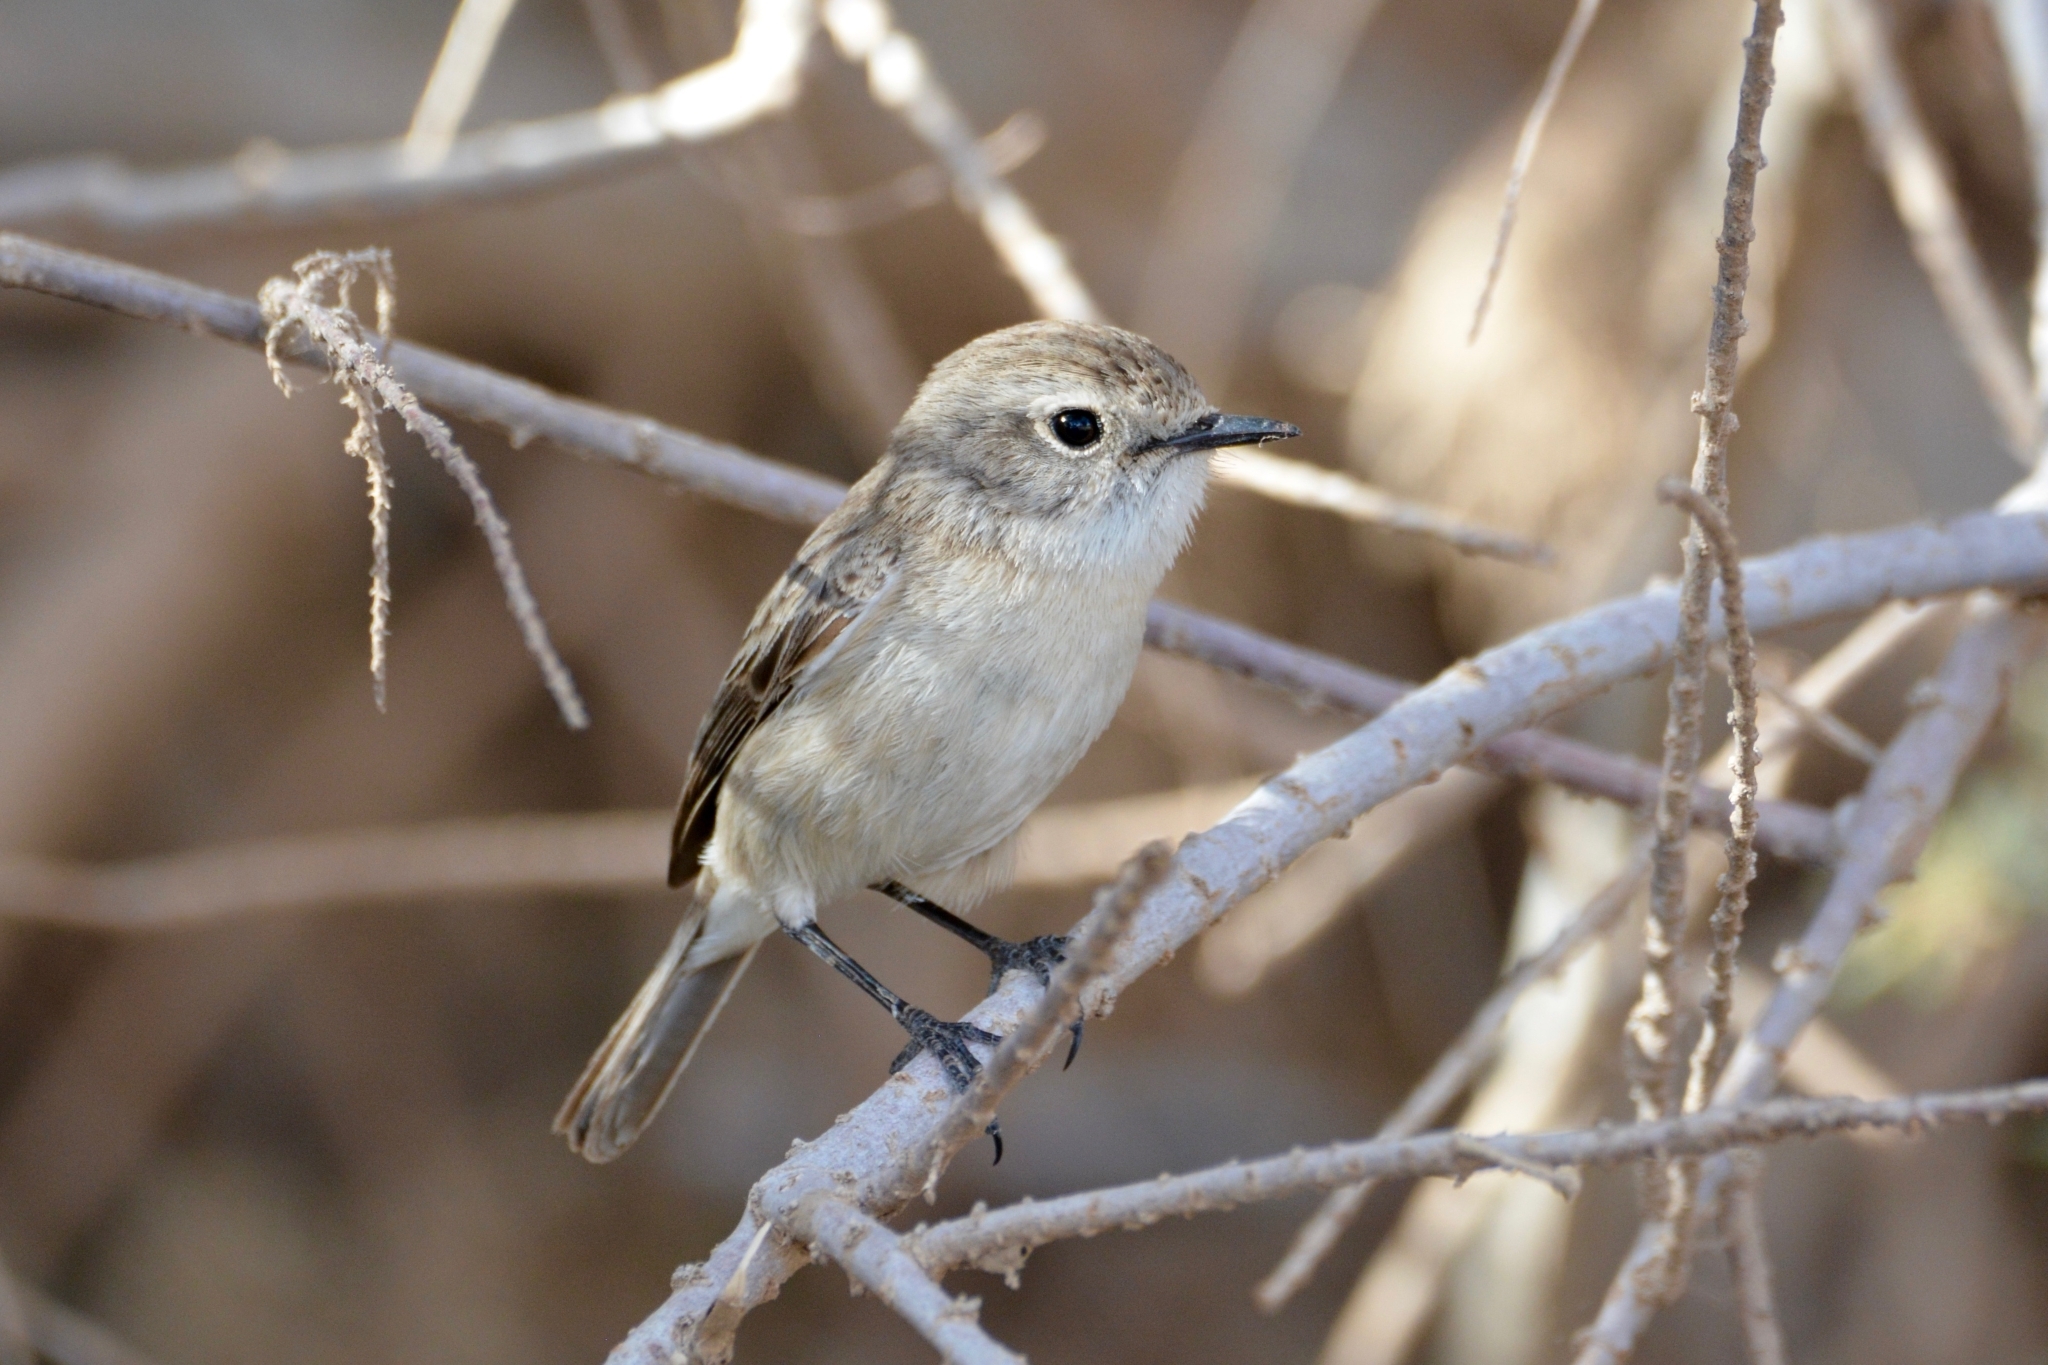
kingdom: Animalia
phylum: Chordata
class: Aves
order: Passeriformes
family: Muscicapidae
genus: Saxicola
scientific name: Saxicola dacotiae
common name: Canary islands stonechat
